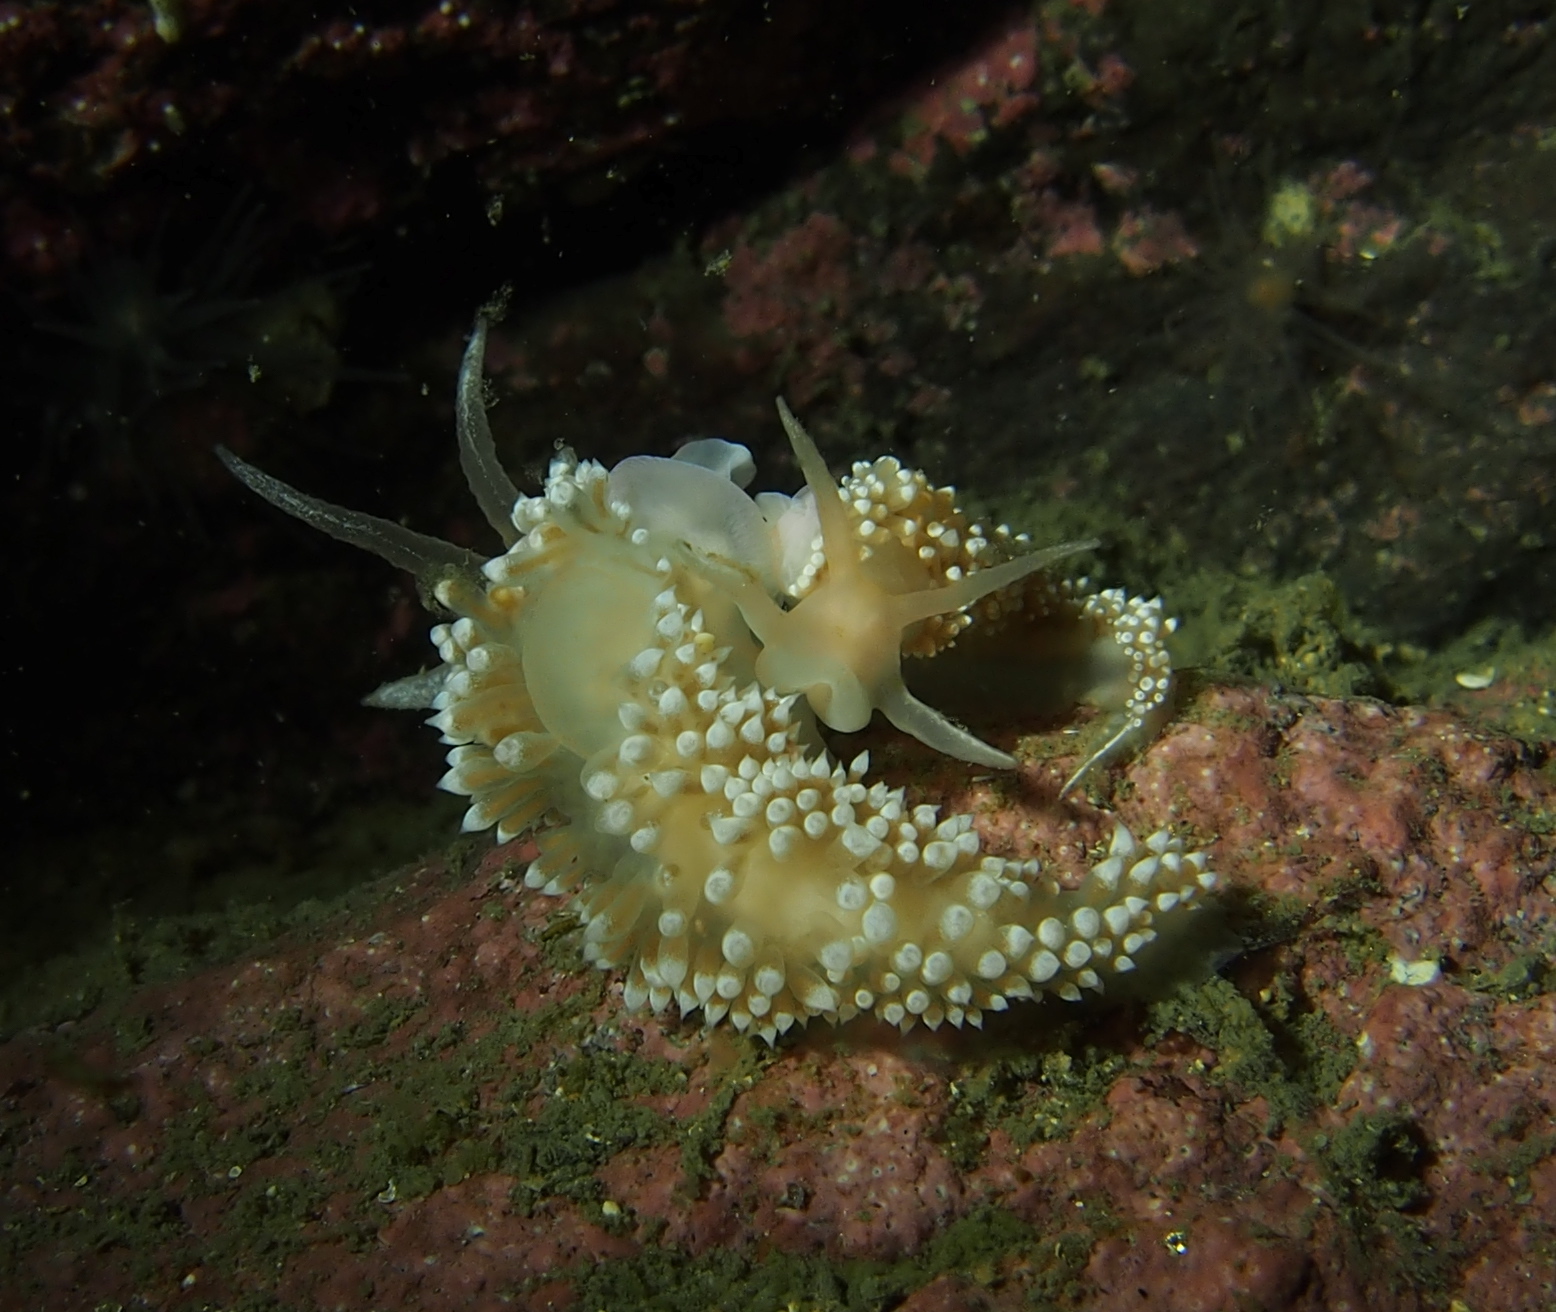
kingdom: Animalia
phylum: Mollusca
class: Gastropoda
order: Nudibranchia
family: Coryphellidae
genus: Coryphella
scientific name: Coryphella verrucosa
